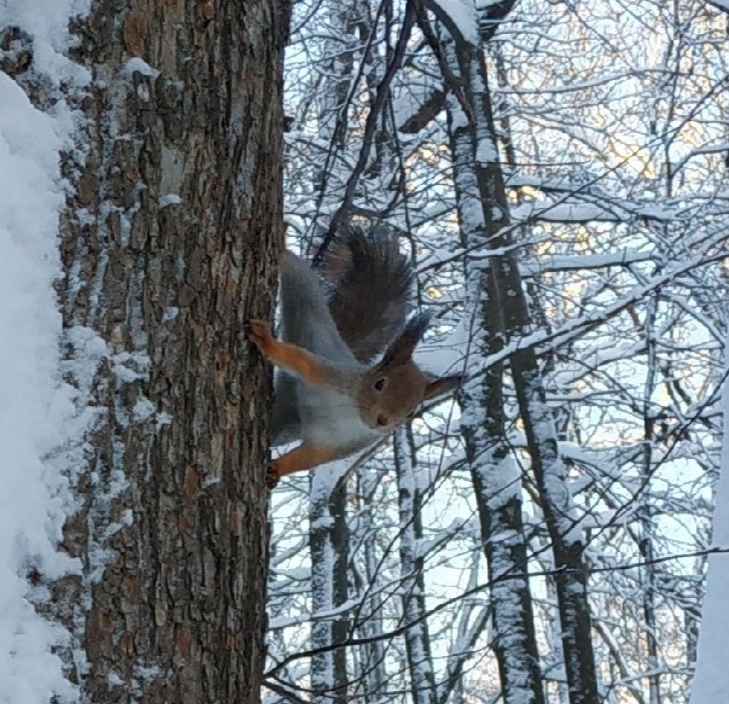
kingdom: Animalia
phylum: Chordata
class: Mammalia
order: Rodentia
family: Sciuridae
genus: Sciurus
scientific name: Sciurus vulgaris
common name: Eurasian red squirrel
